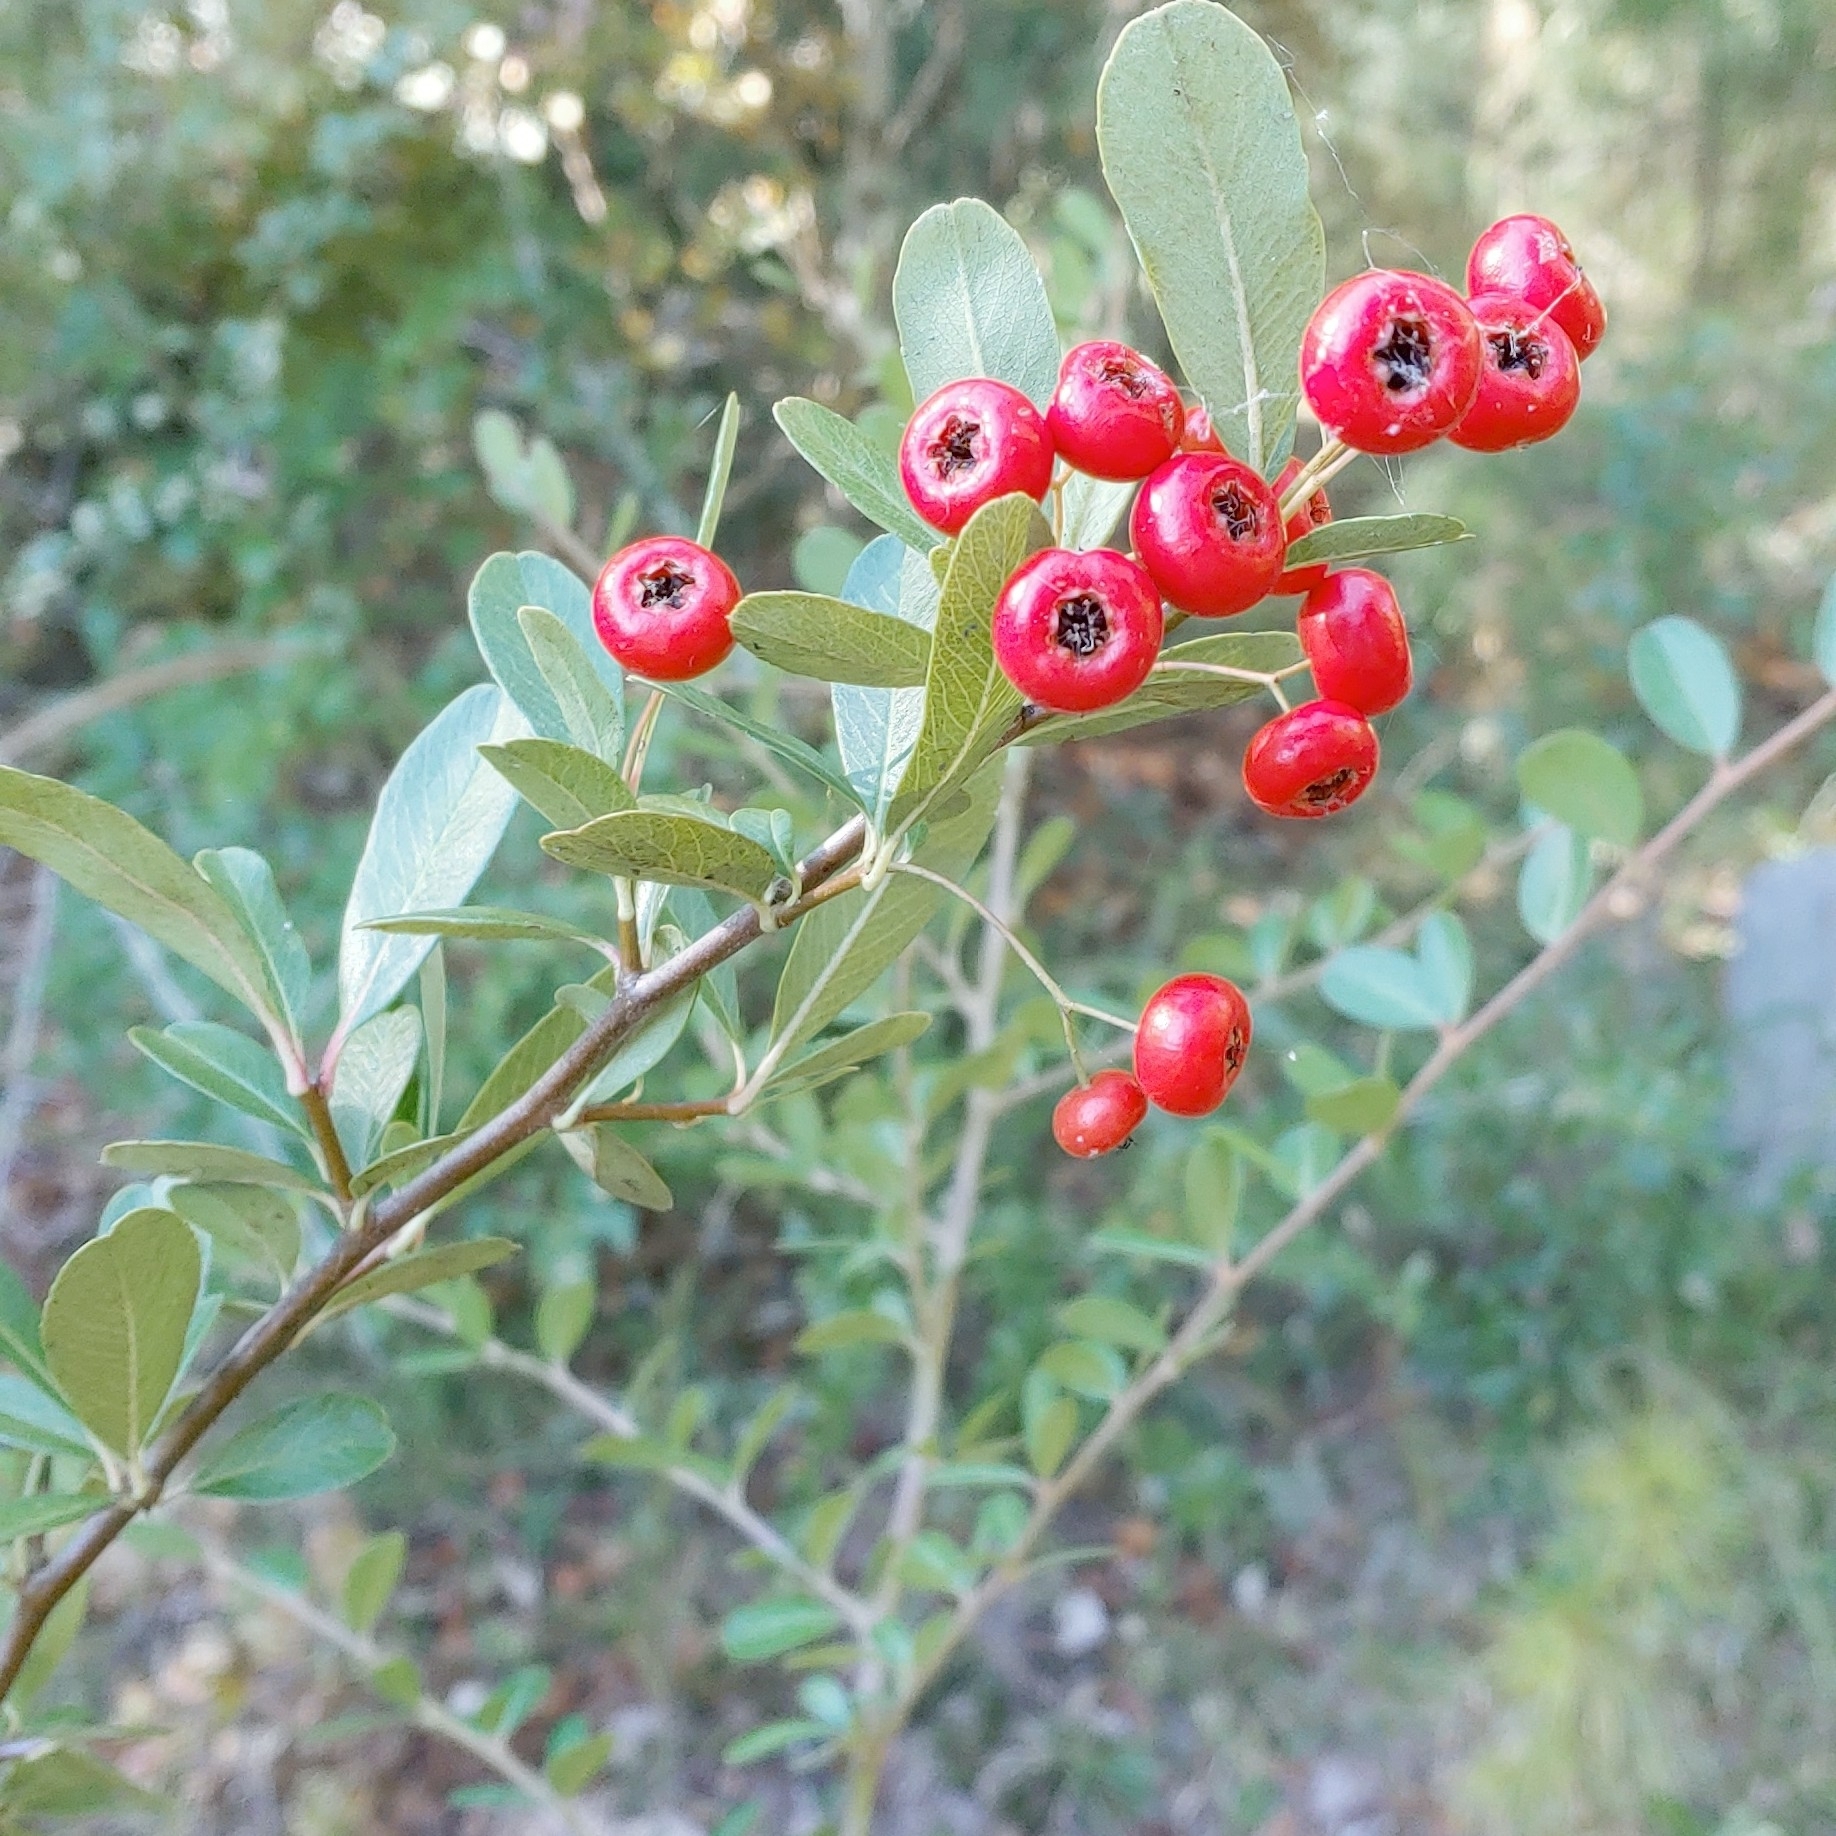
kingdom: Plantae
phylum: Tracheophyta
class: Magnoliopsida
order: Rosales
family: Rosaceae
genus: Pyracantha
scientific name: Pyracantha koidzumii
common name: Formosa firethorn
